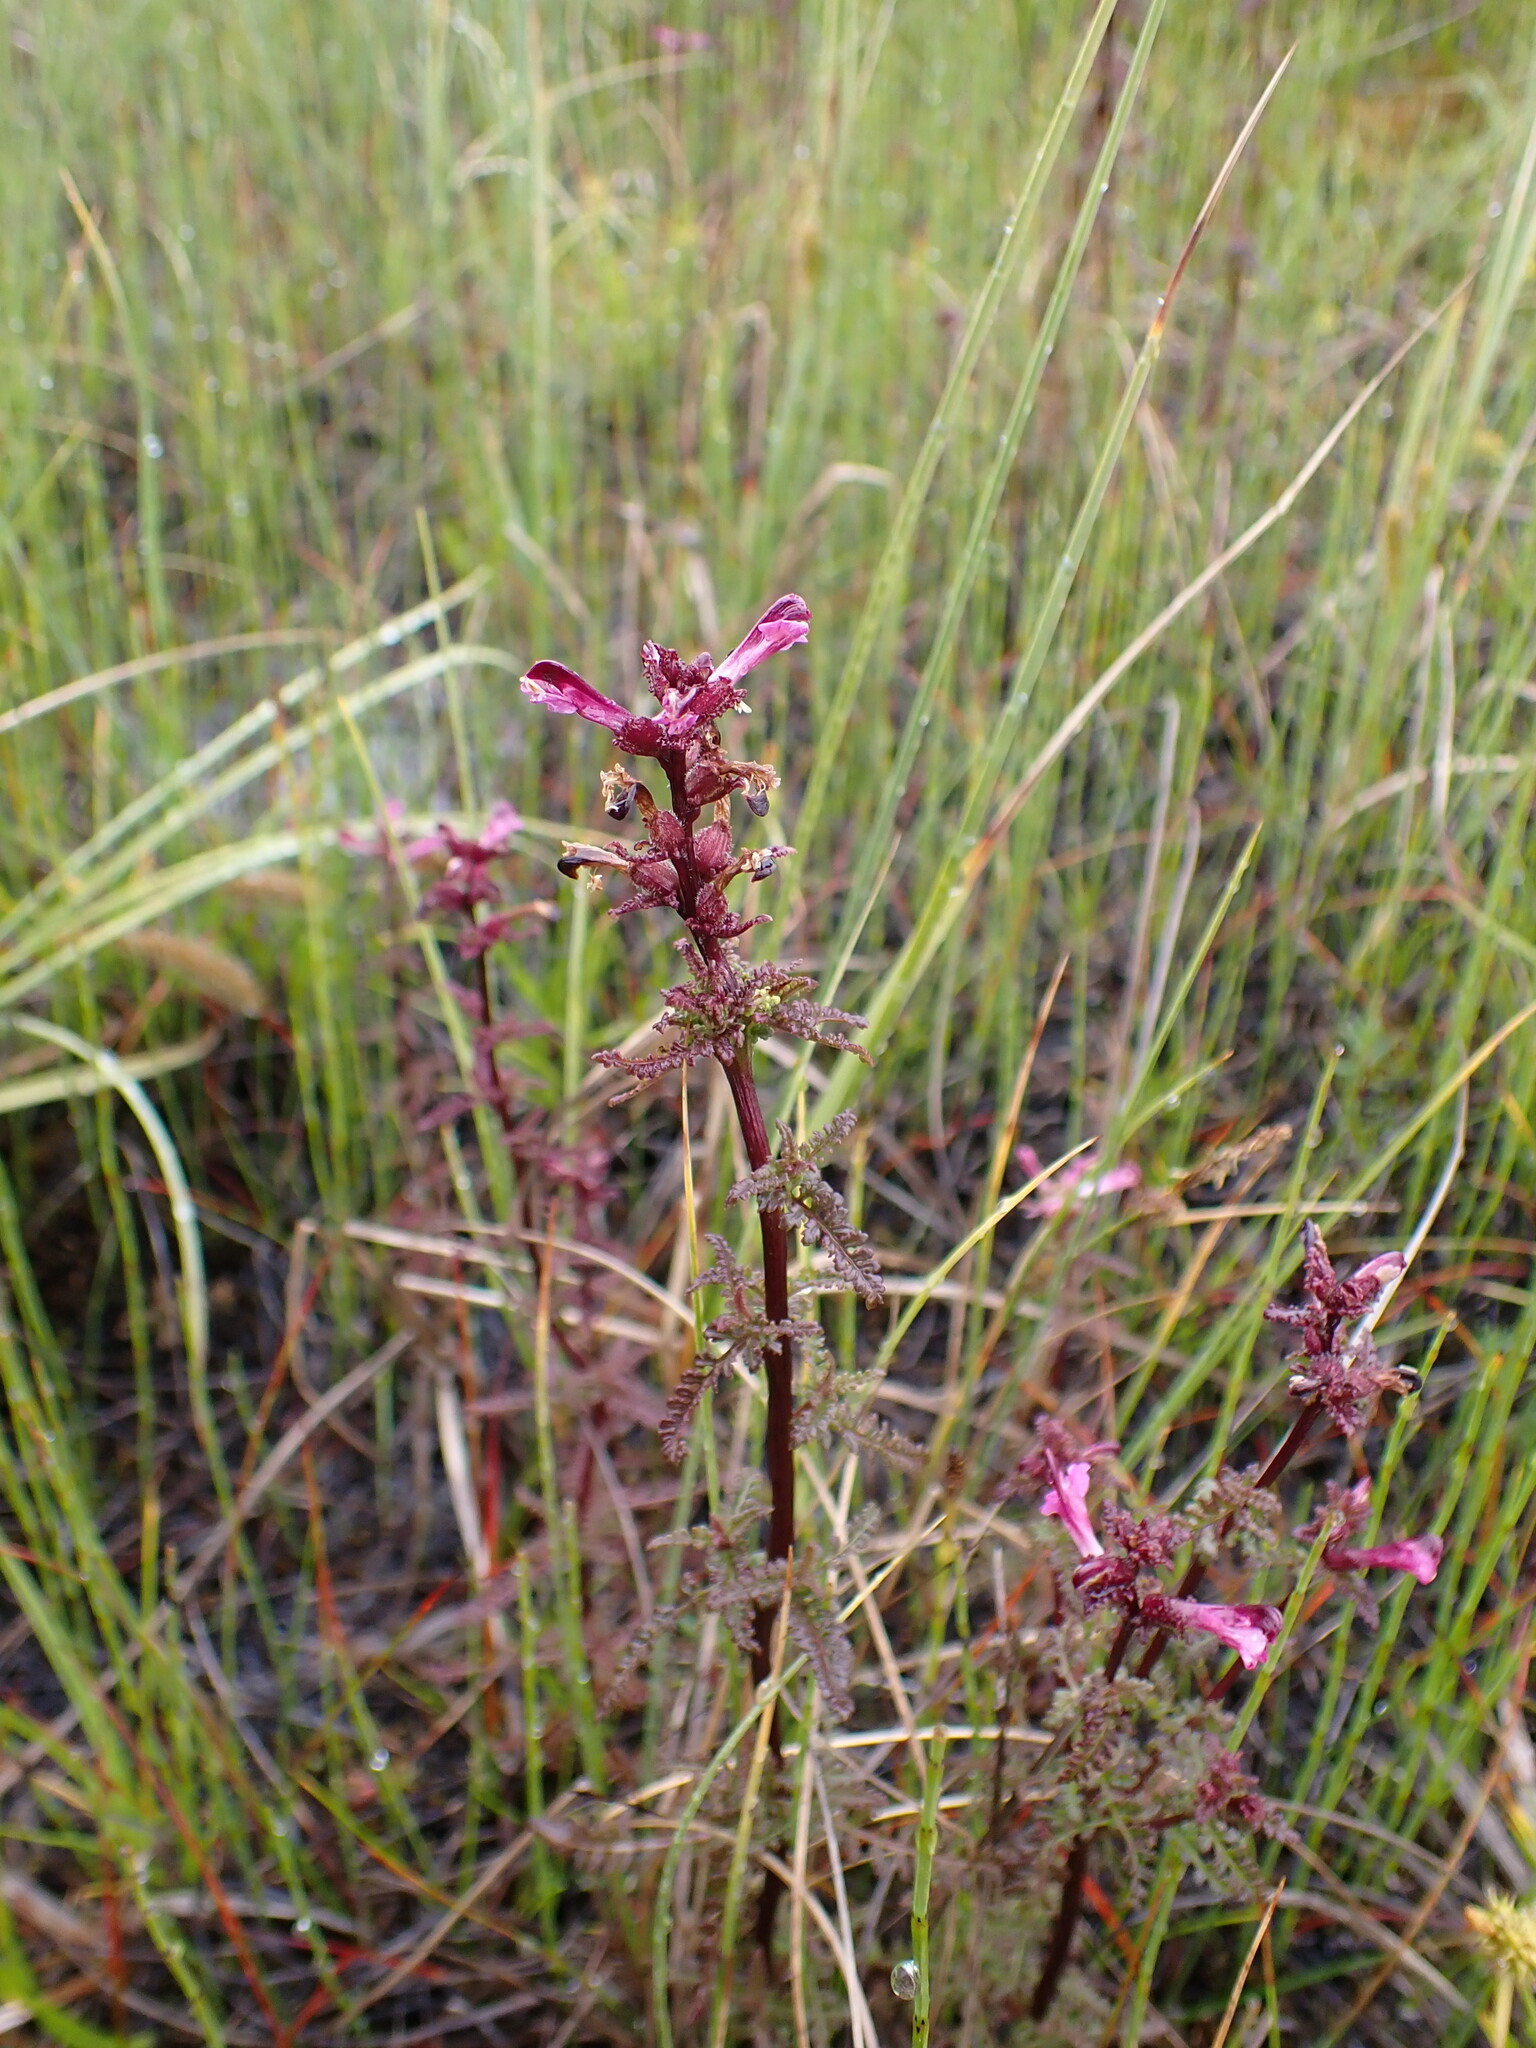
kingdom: Plantae
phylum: Tracheophyta
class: Magnoliopsida
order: Lamiales
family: Orobanchaceae
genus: Pedicularis
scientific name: Pedicularis palustris
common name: Marsh lousewort
